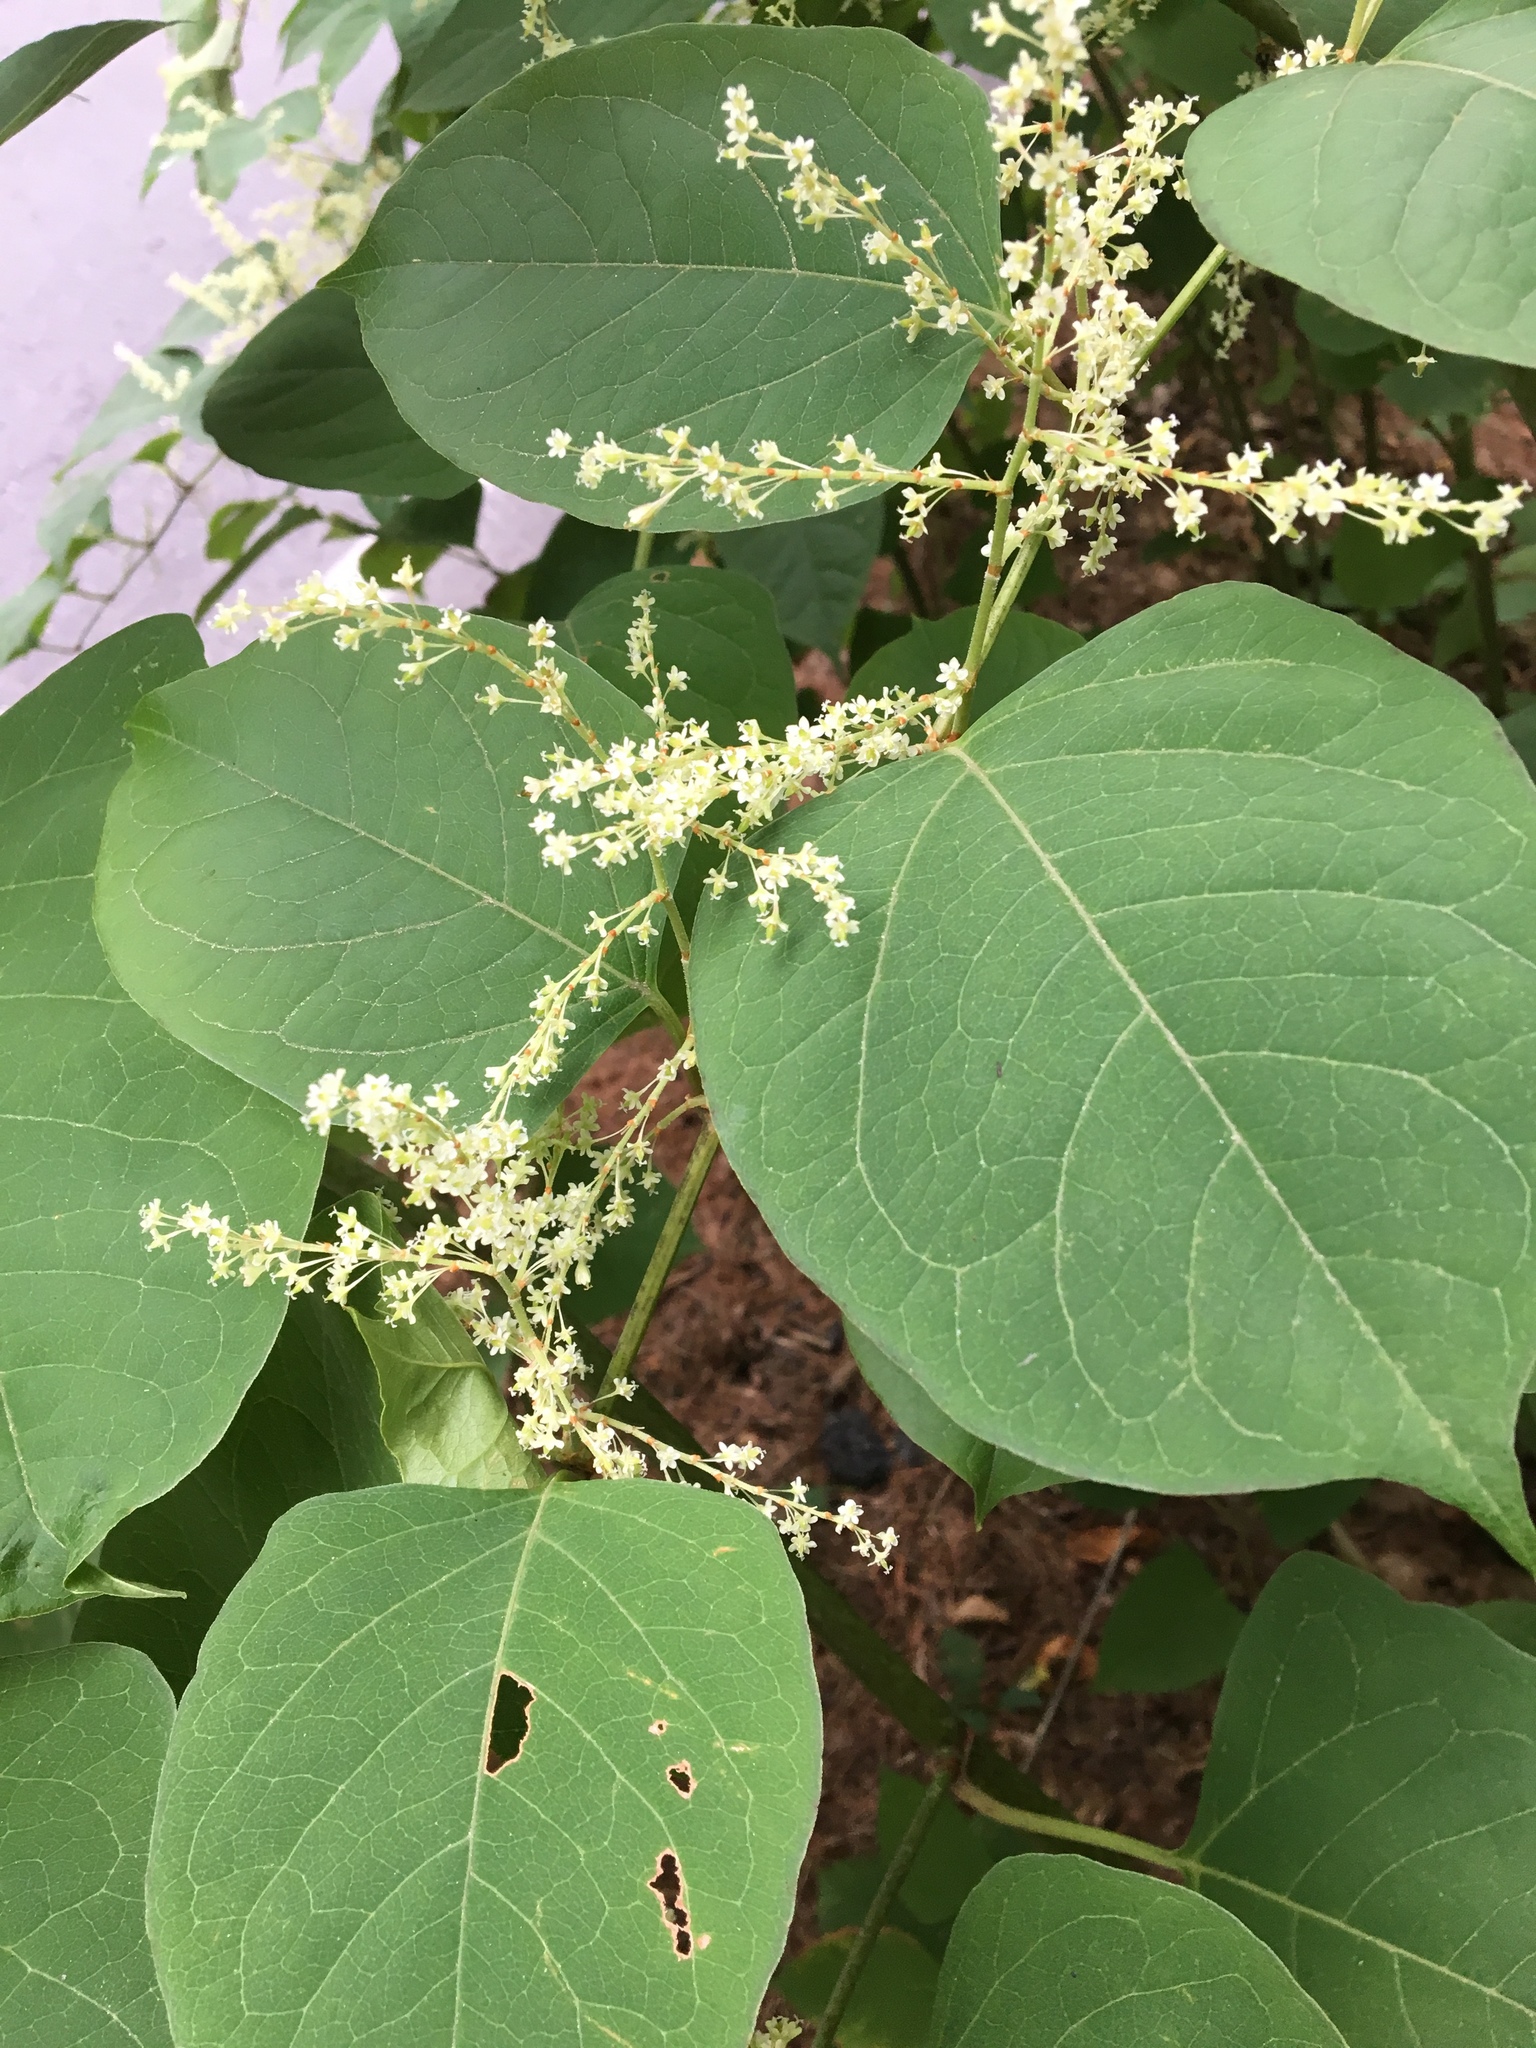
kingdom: Plantae
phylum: Tracheophyta
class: Magnoliopsida
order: Caryophyllales
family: Polygonaceae
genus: Reynoutria
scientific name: Reynoutria japonica
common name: Japanese knotweed
